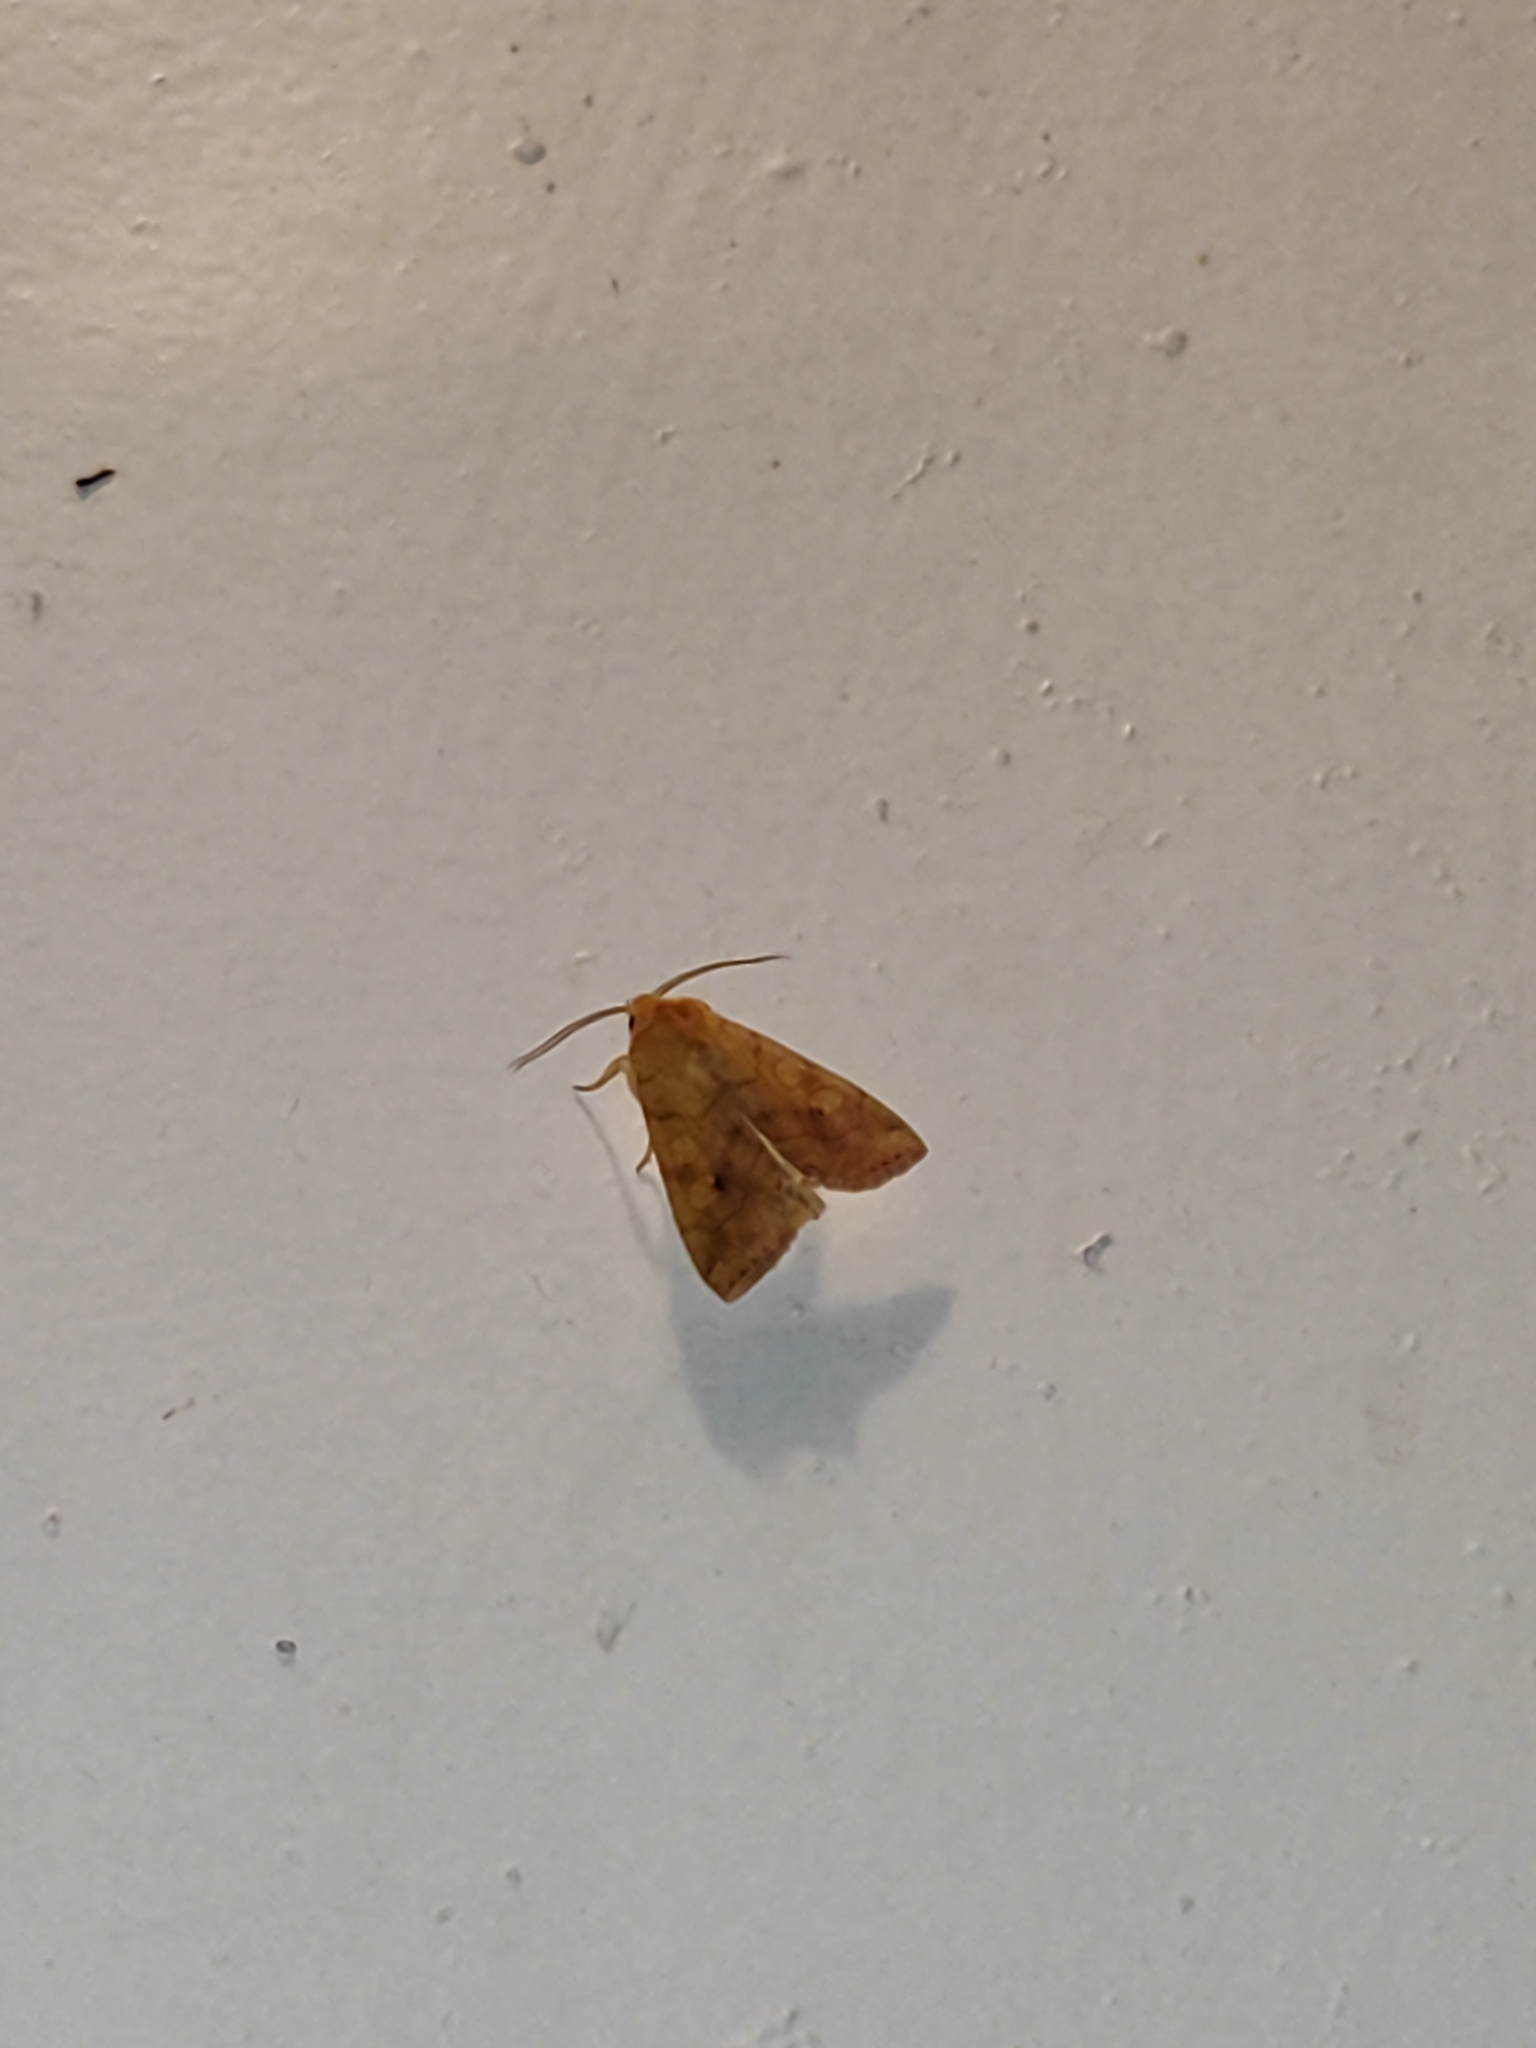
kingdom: Animalia
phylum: Arthropoda
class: Insecta
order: Lepidoptera
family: Noctuidae
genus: Enargia
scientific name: Enargia paleacea
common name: Angle-striped sallow
